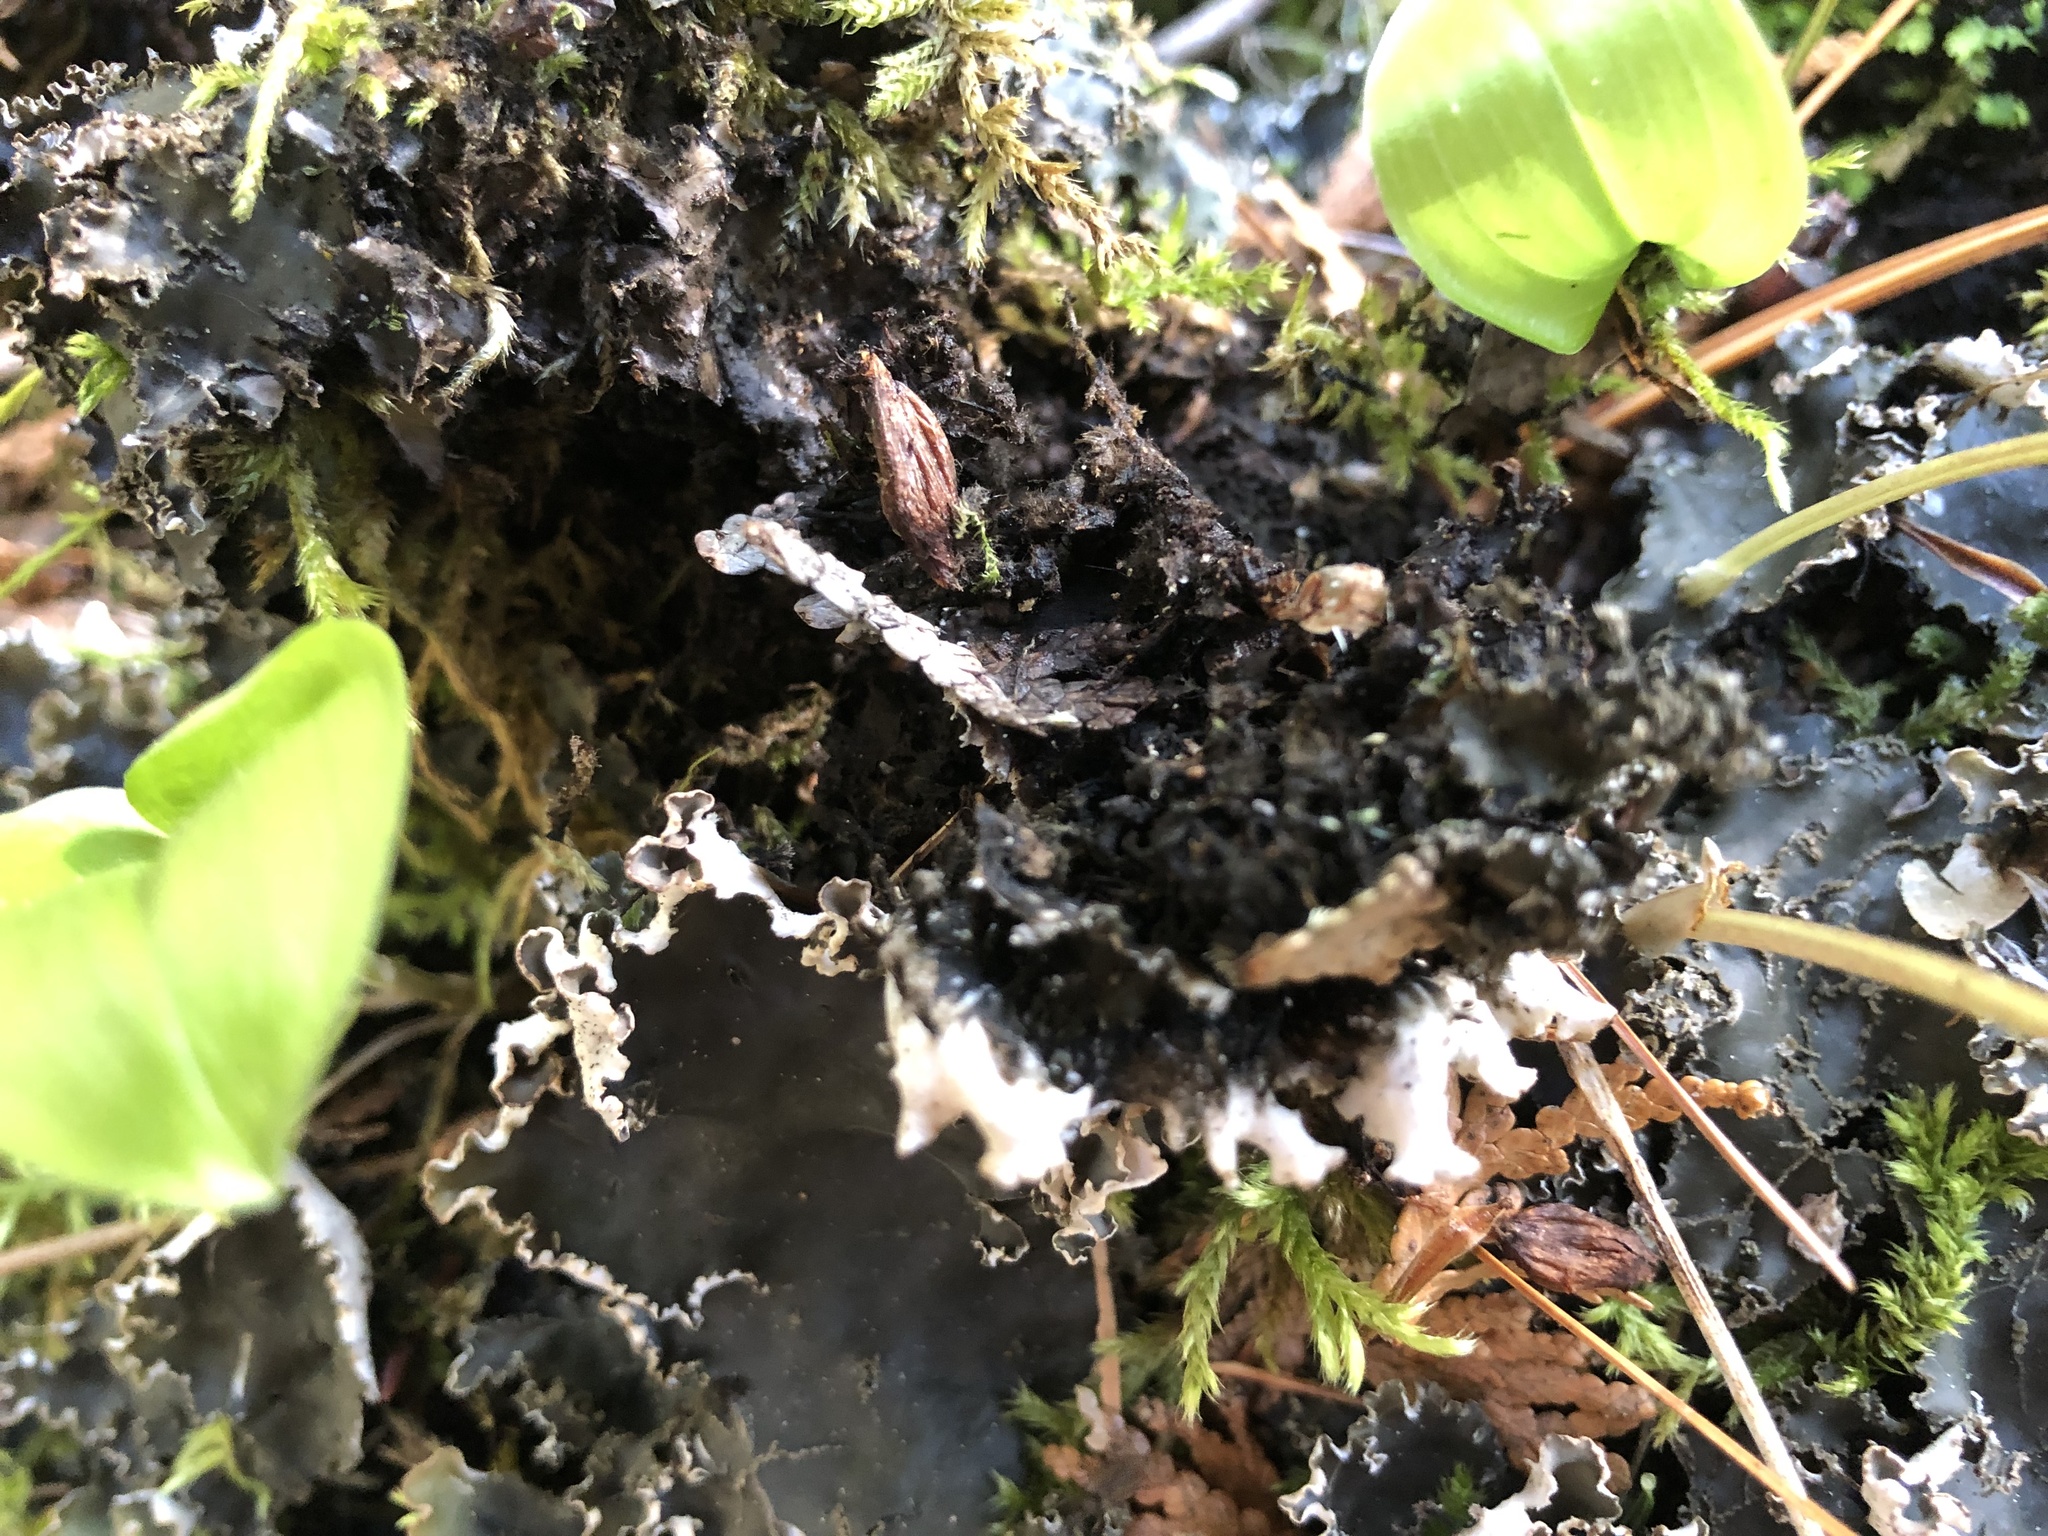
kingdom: Fungi
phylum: Ascomycota
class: Lecanoromycetes
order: Peltigerales
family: Peltigeraceae
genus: Peltigera
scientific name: Peltigera elisabethae
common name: Concentric pelt lichen
